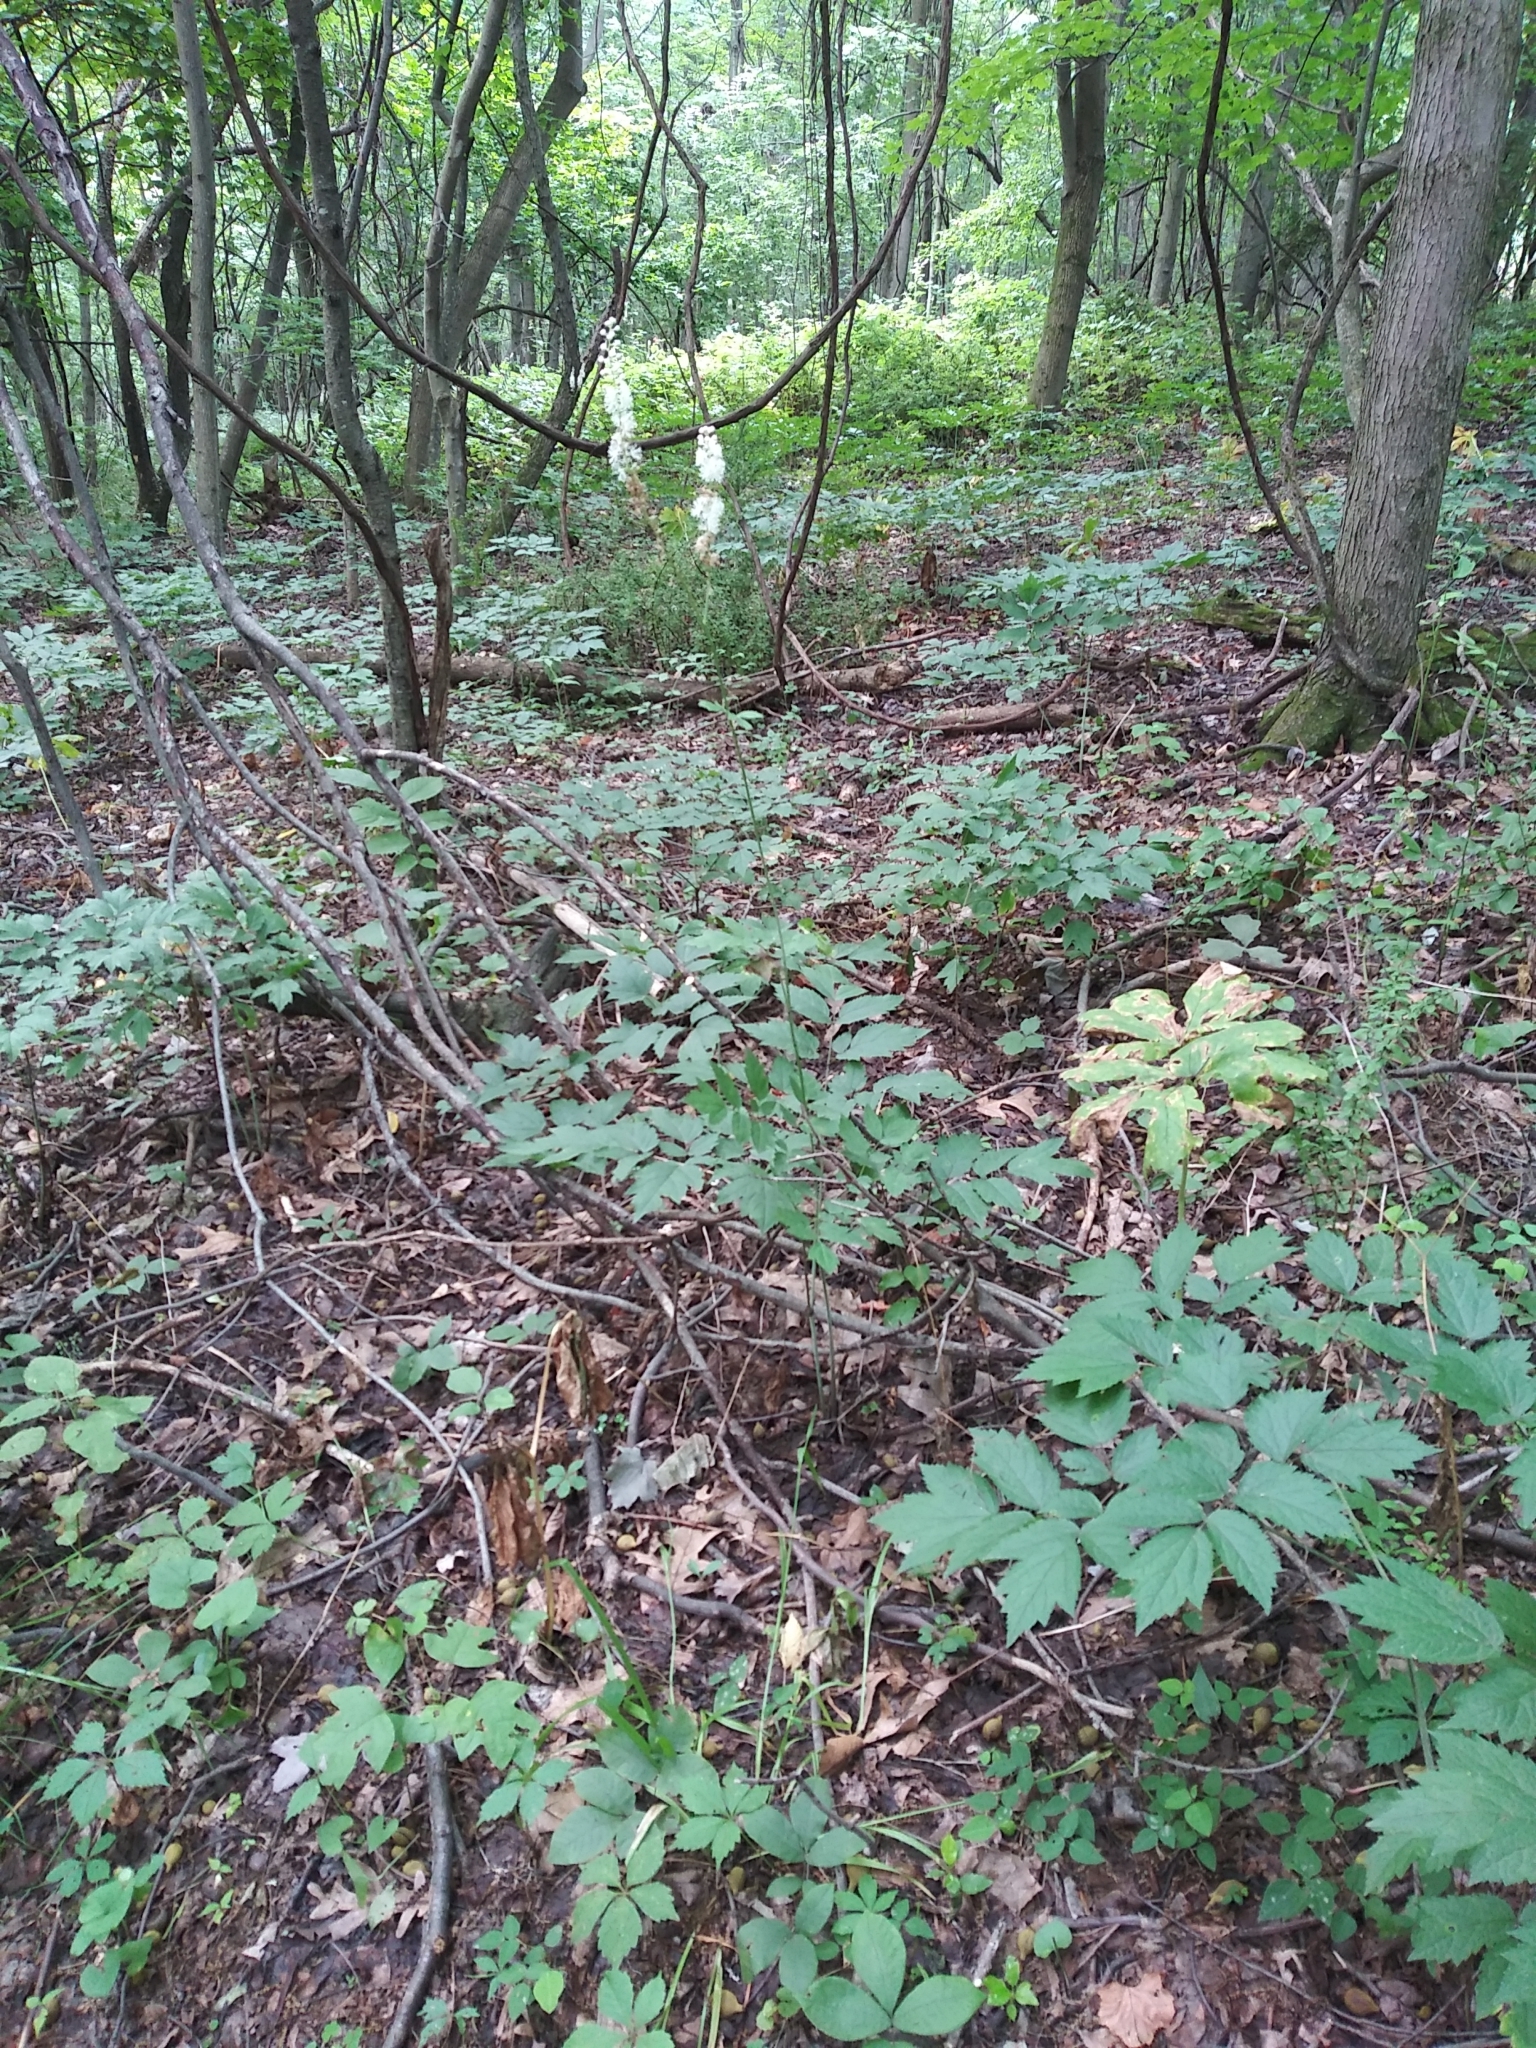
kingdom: Plantae
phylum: Tracheophyta
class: Magnoliopsida
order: Ranunculales
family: Ranunculaceae
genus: Actaea
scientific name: Actaea racemosa
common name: Black cohosh
